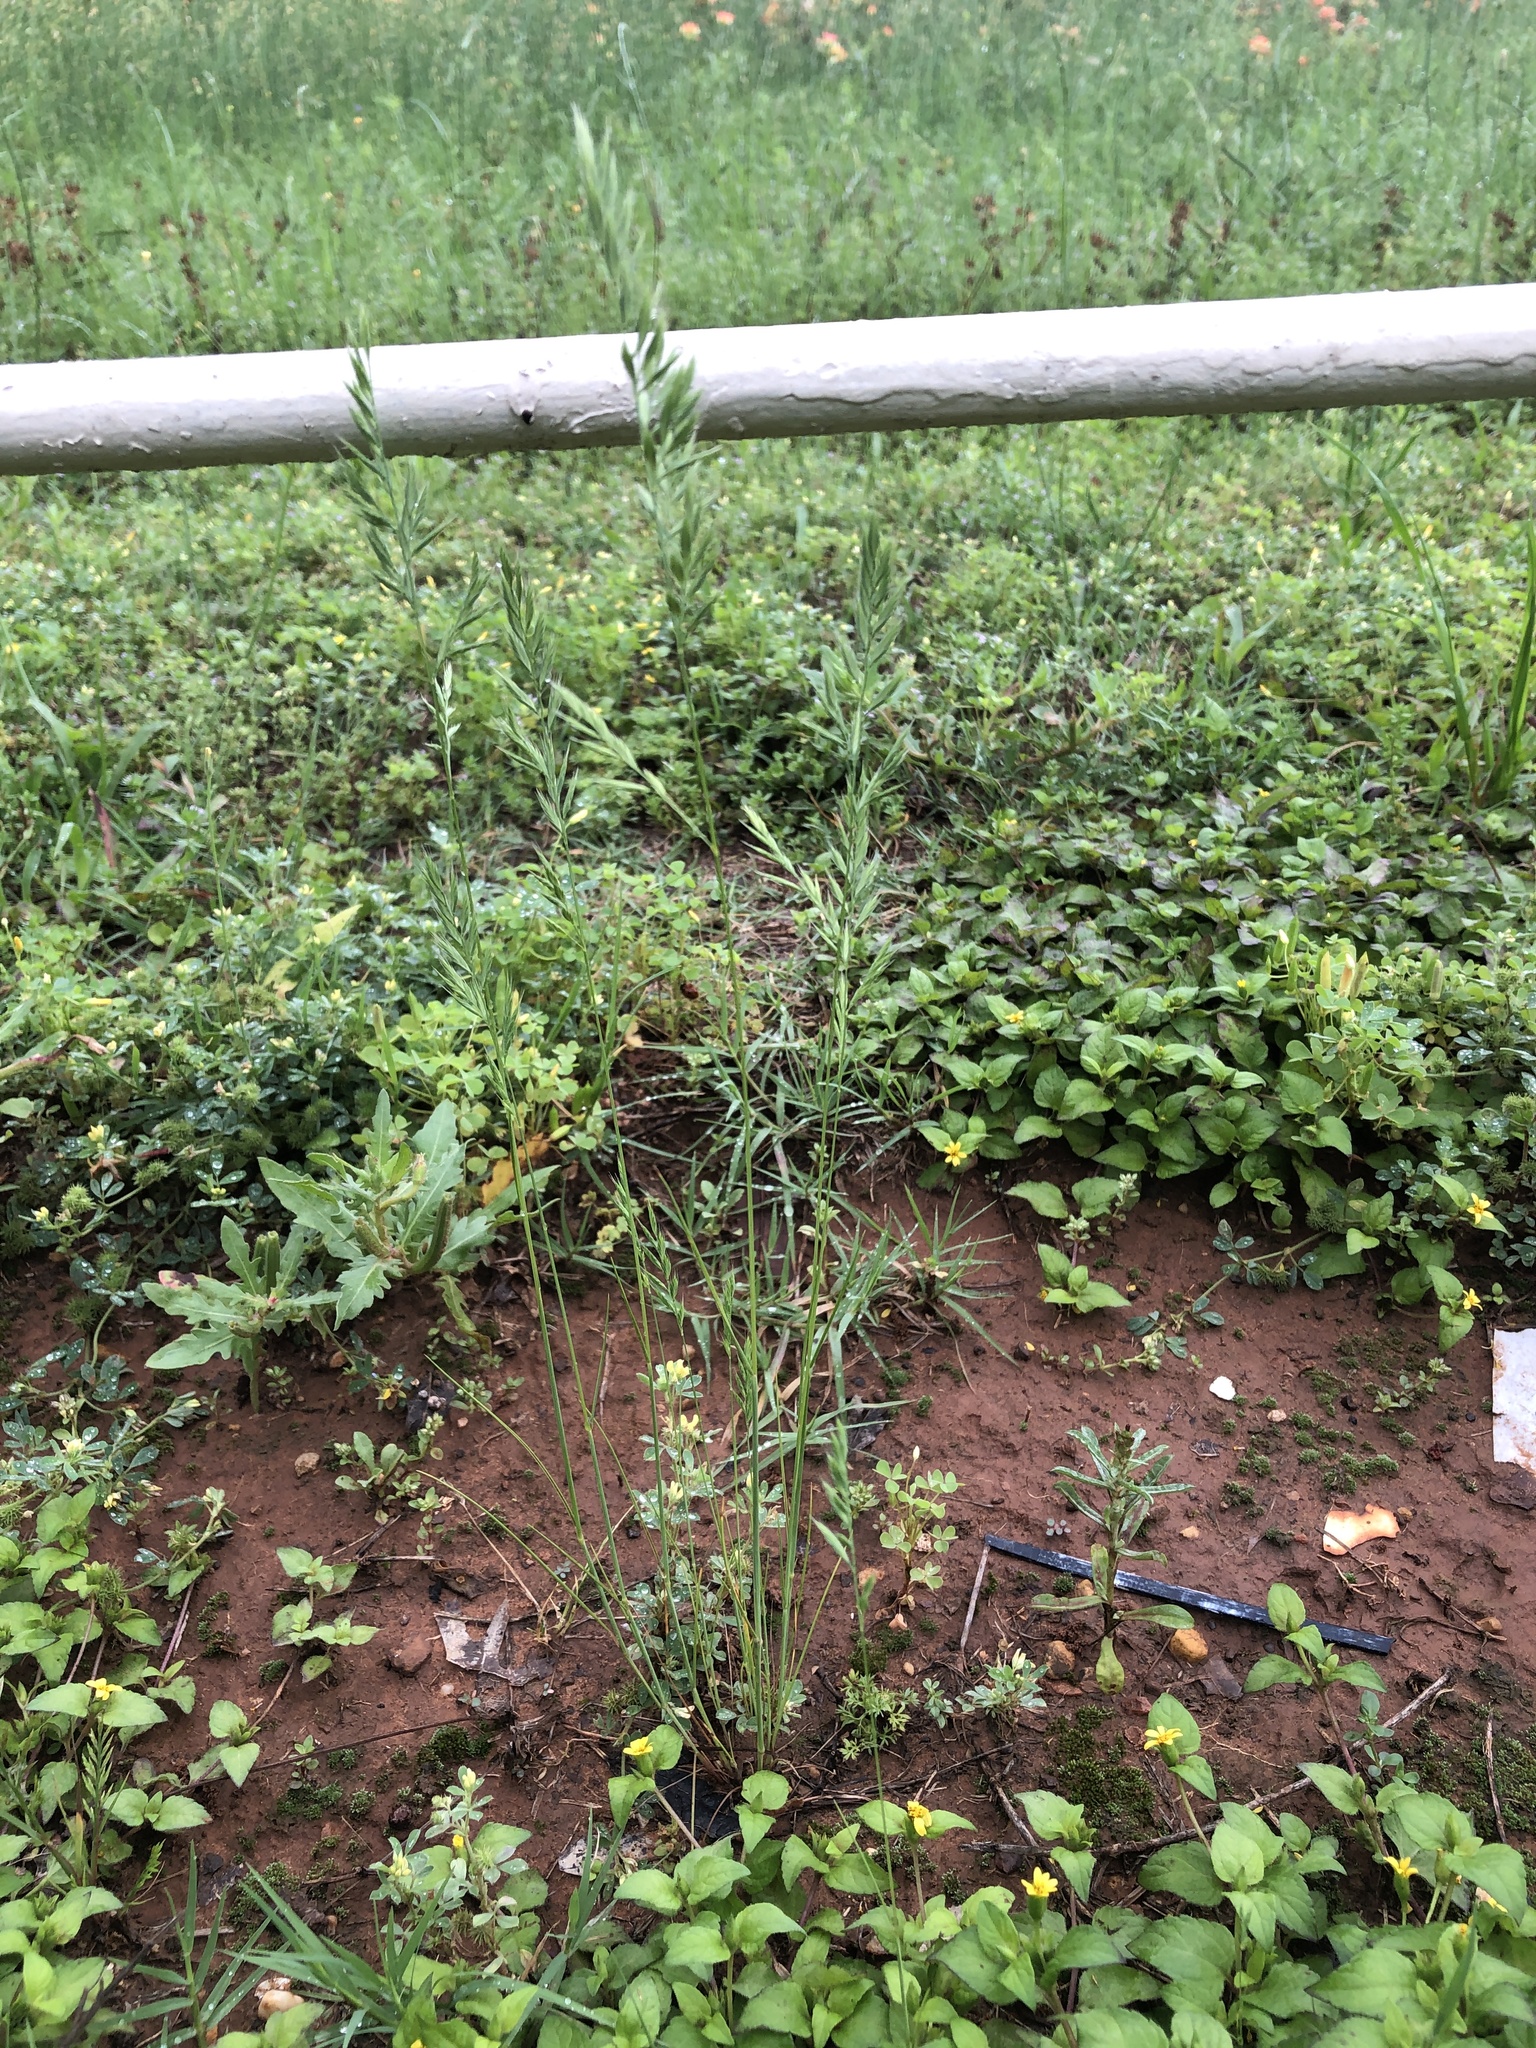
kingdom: Plantae
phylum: Tracheophyta
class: Liliopsida
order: Poales
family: Poaceae
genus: Festuca
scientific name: Festuca octoflora
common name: Sixweeks grass
